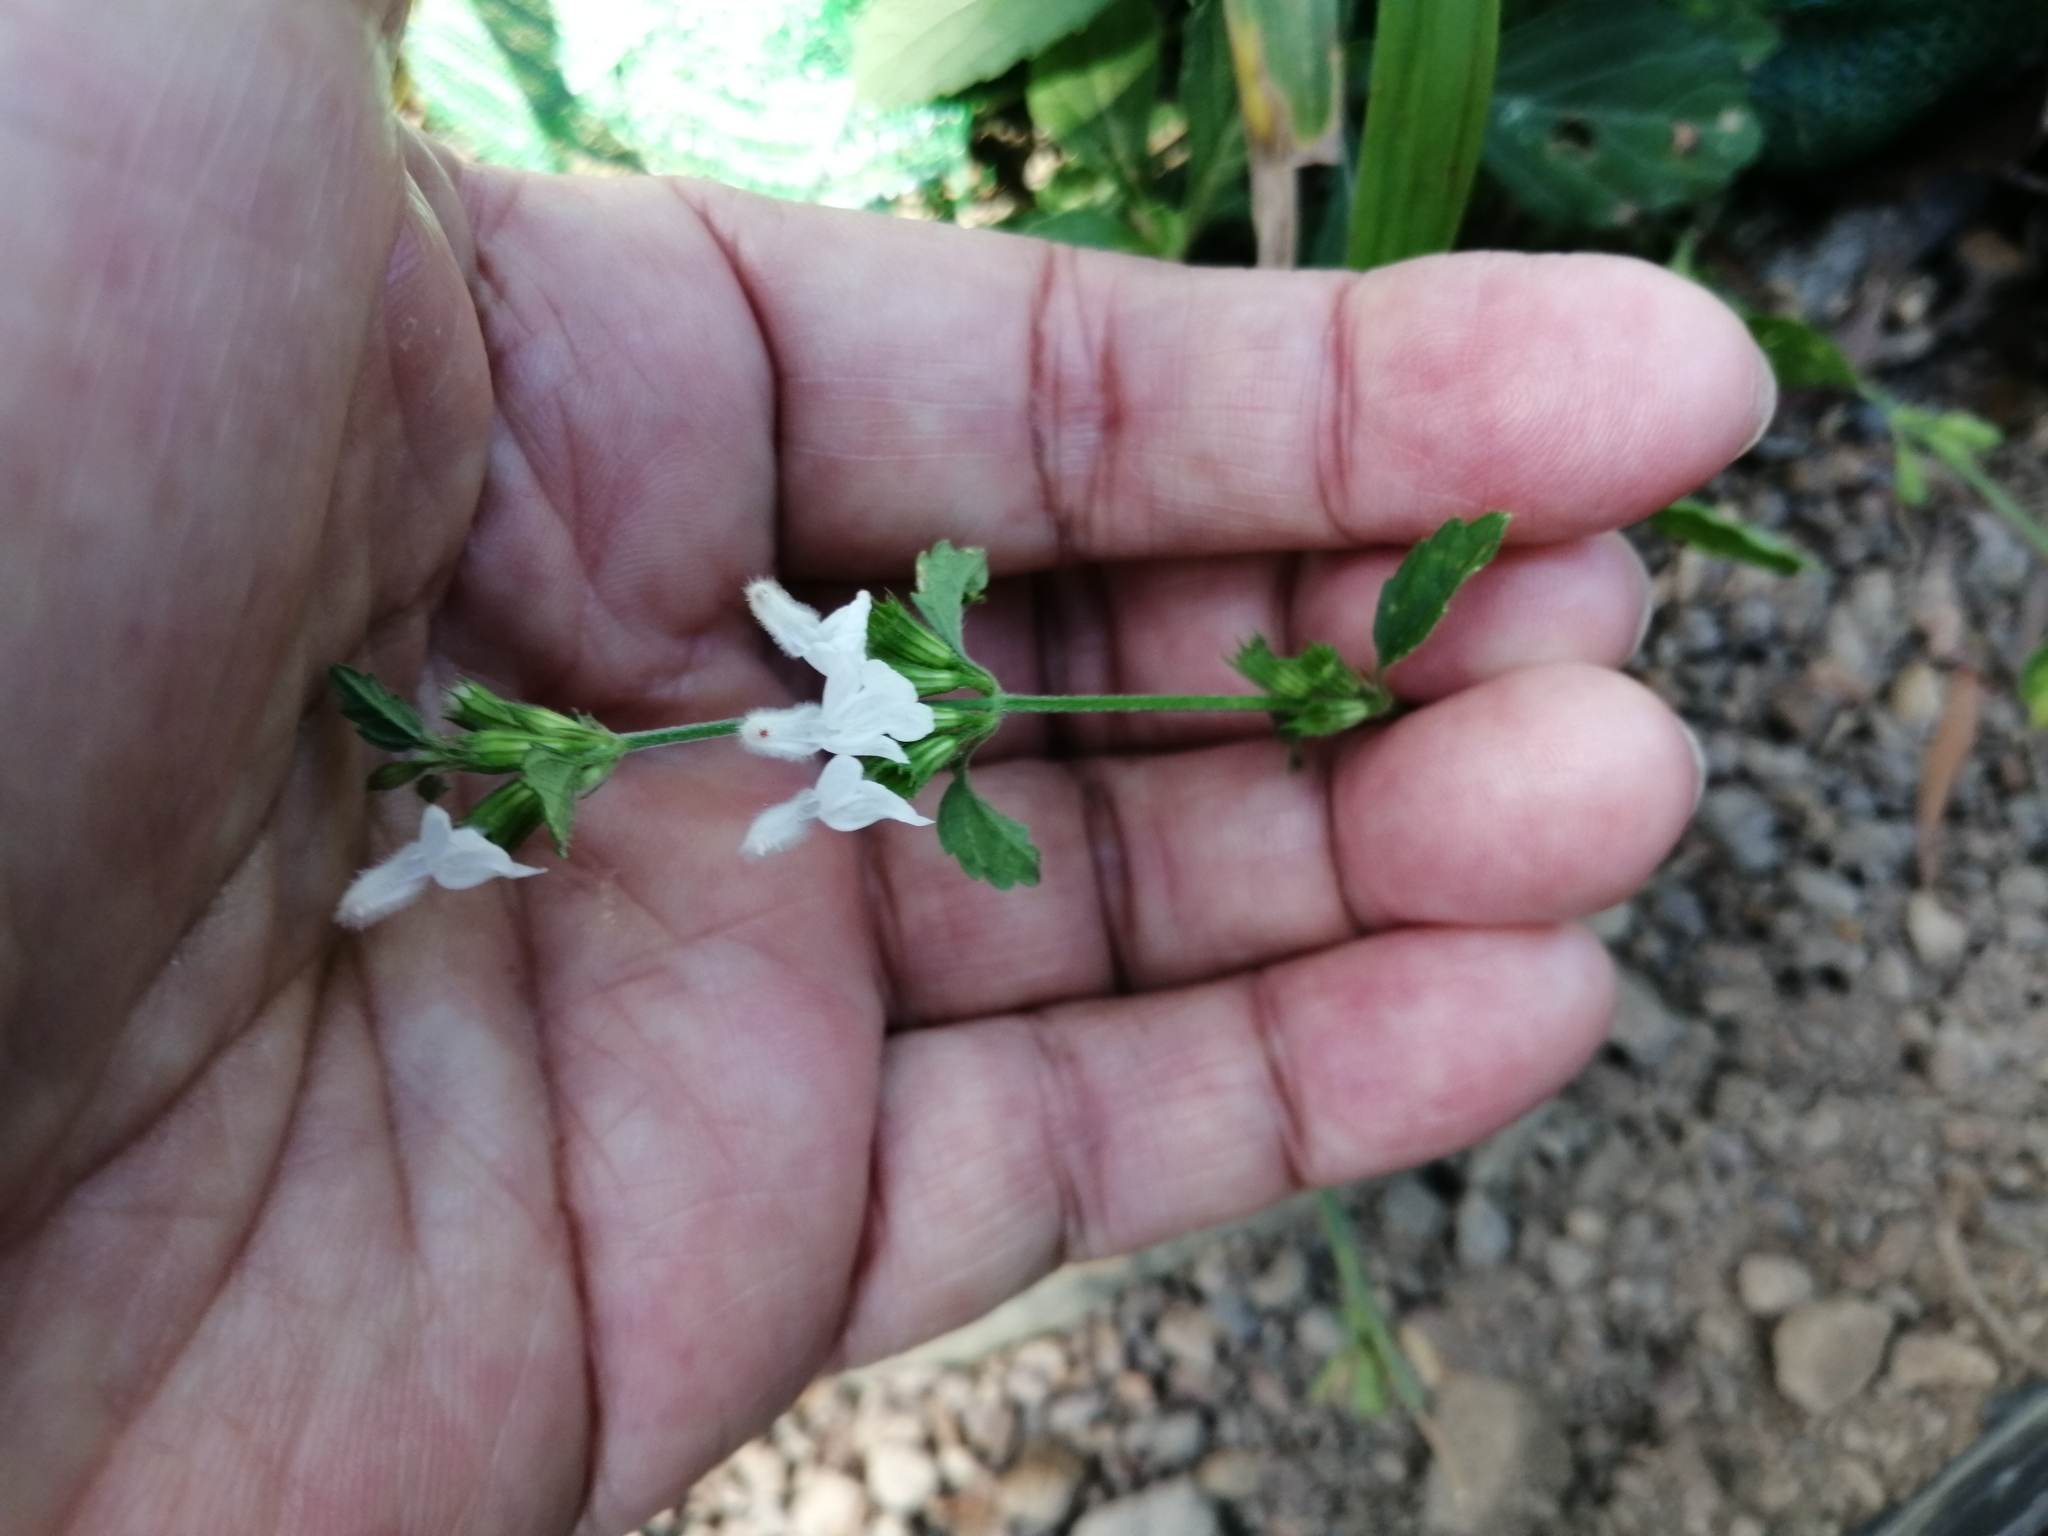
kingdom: Plantae
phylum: Tracheophyta
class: Magnoliopsida
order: Lamiales
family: Lamiaceae
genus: Leucas
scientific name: Leucas chinensis
